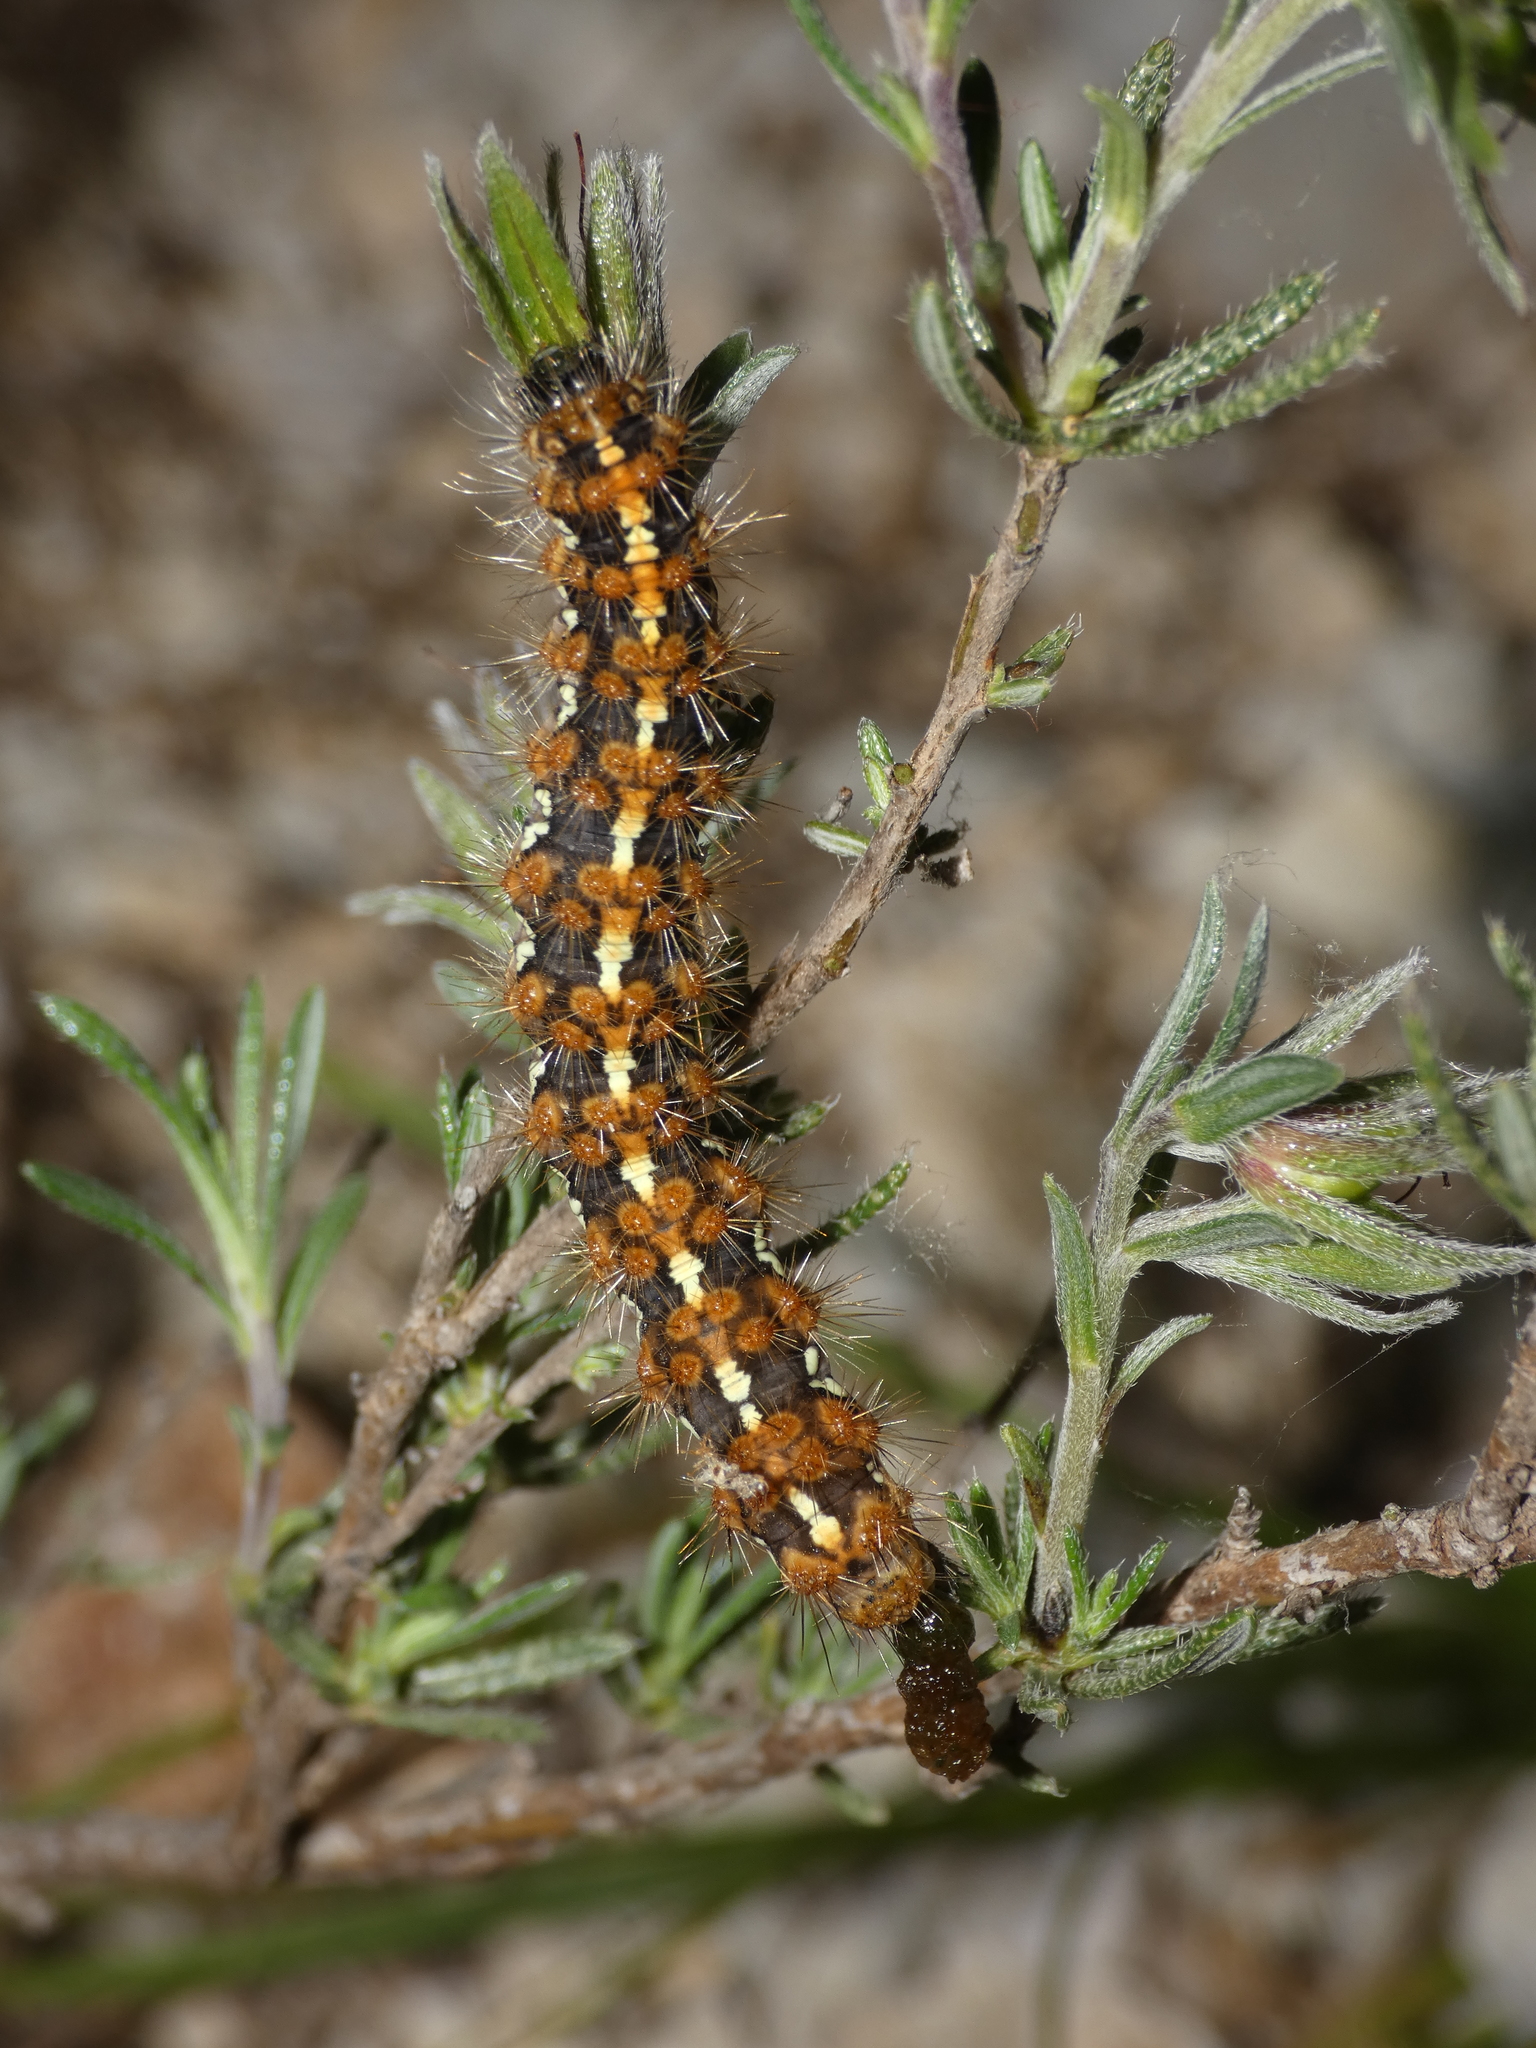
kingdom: Animalia
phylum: Arthropoda
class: Insecta
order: Lepidoptera
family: Erebidae
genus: Euplagia
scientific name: Euplagia quadripunctaria
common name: Jersey tiger
